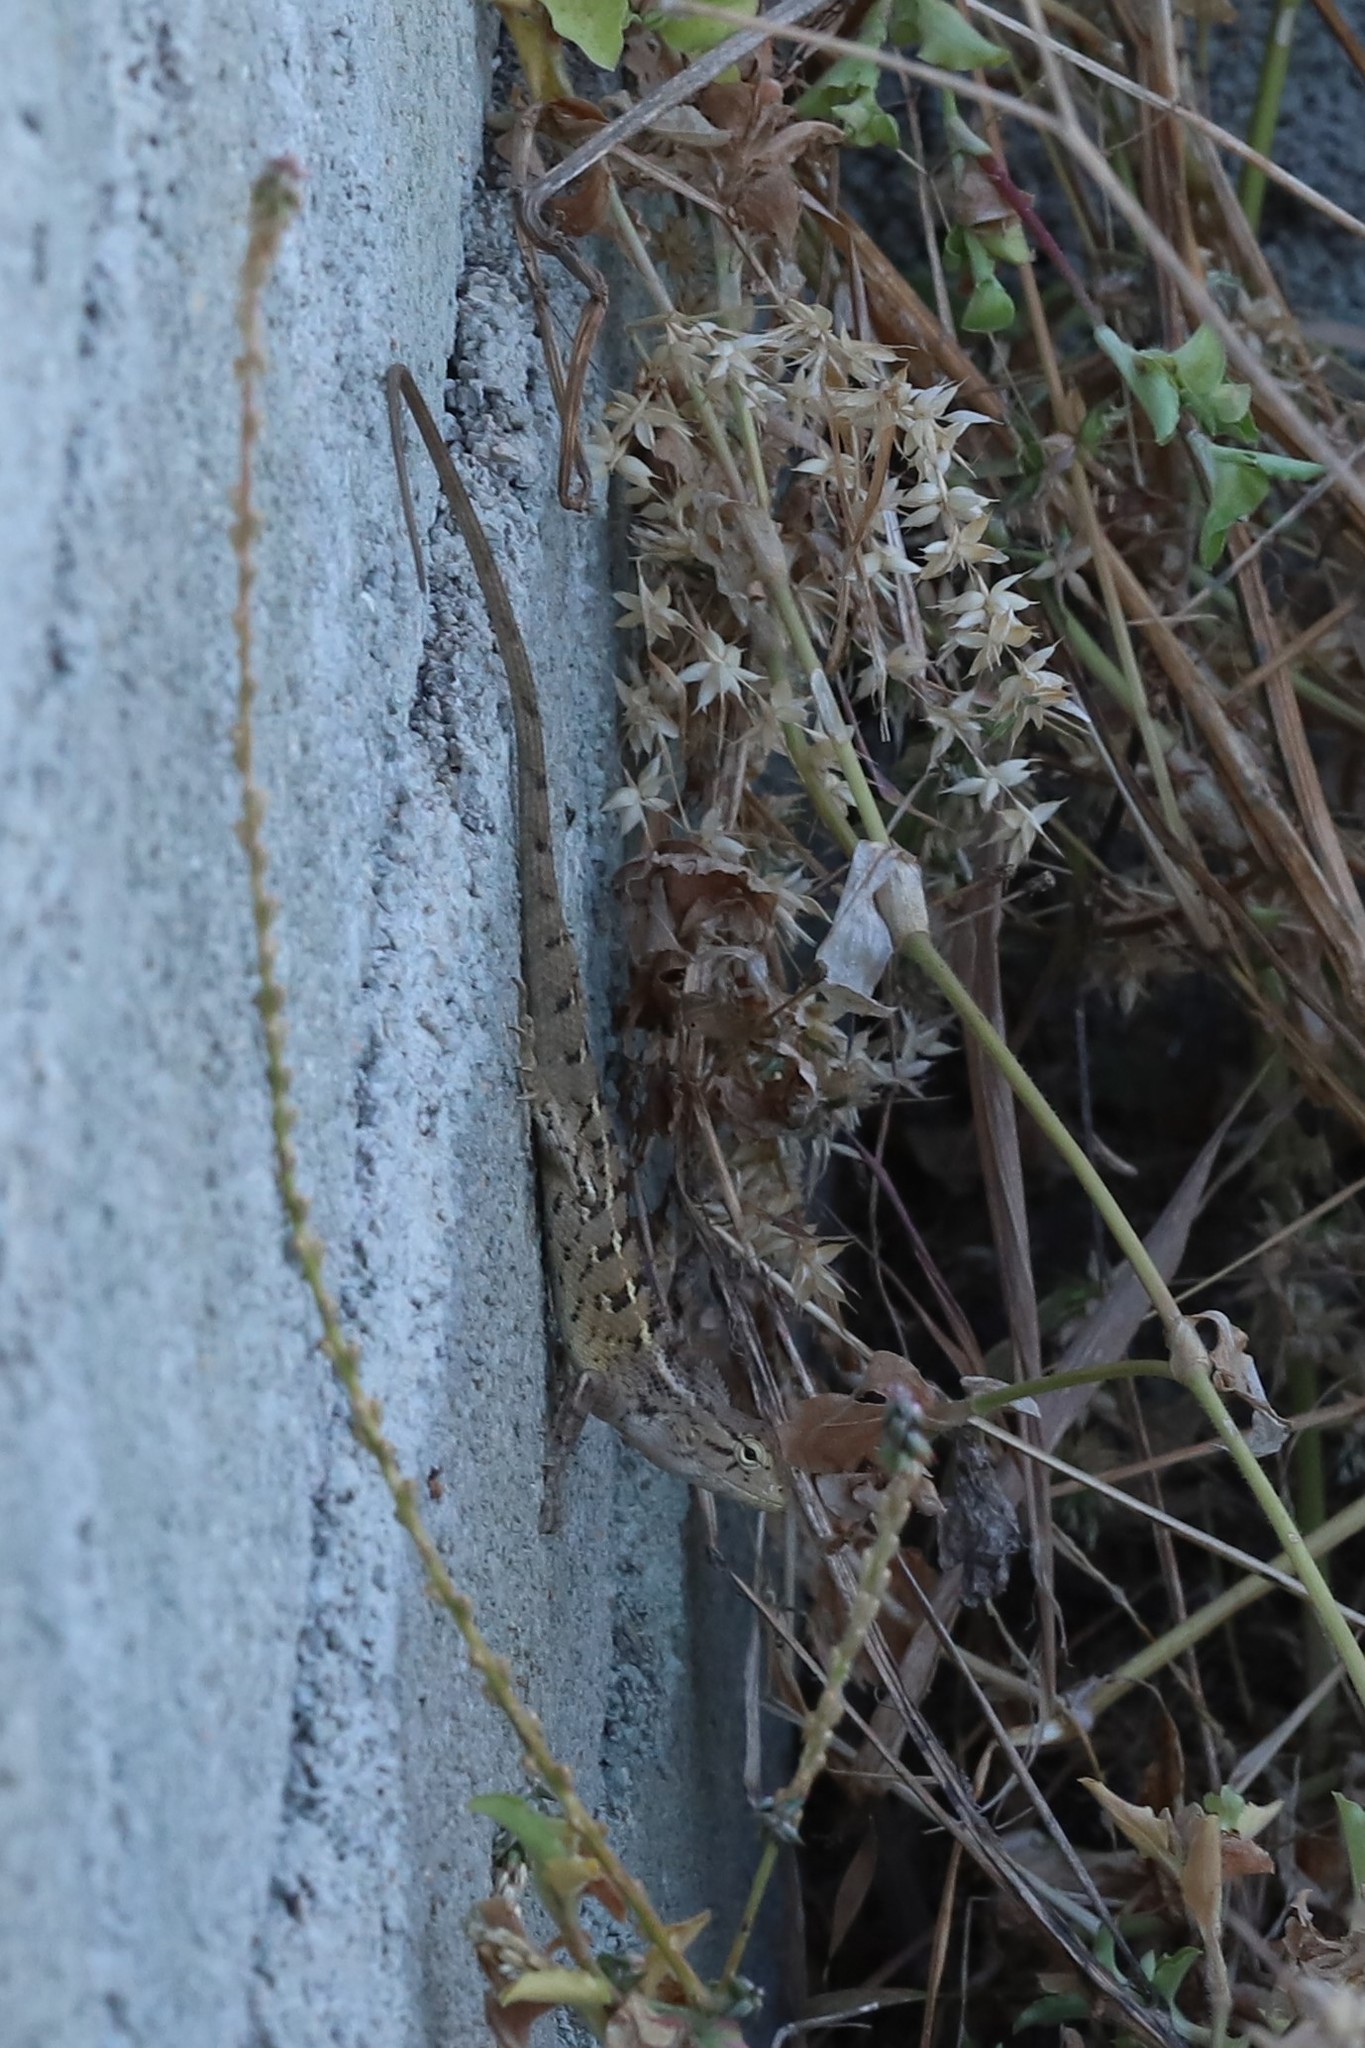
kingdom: Animalia
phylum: Chordata
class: Squamata
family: Agamidae
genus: Calotes
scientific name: Calotes versicolor
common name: Oriental garden lizard
